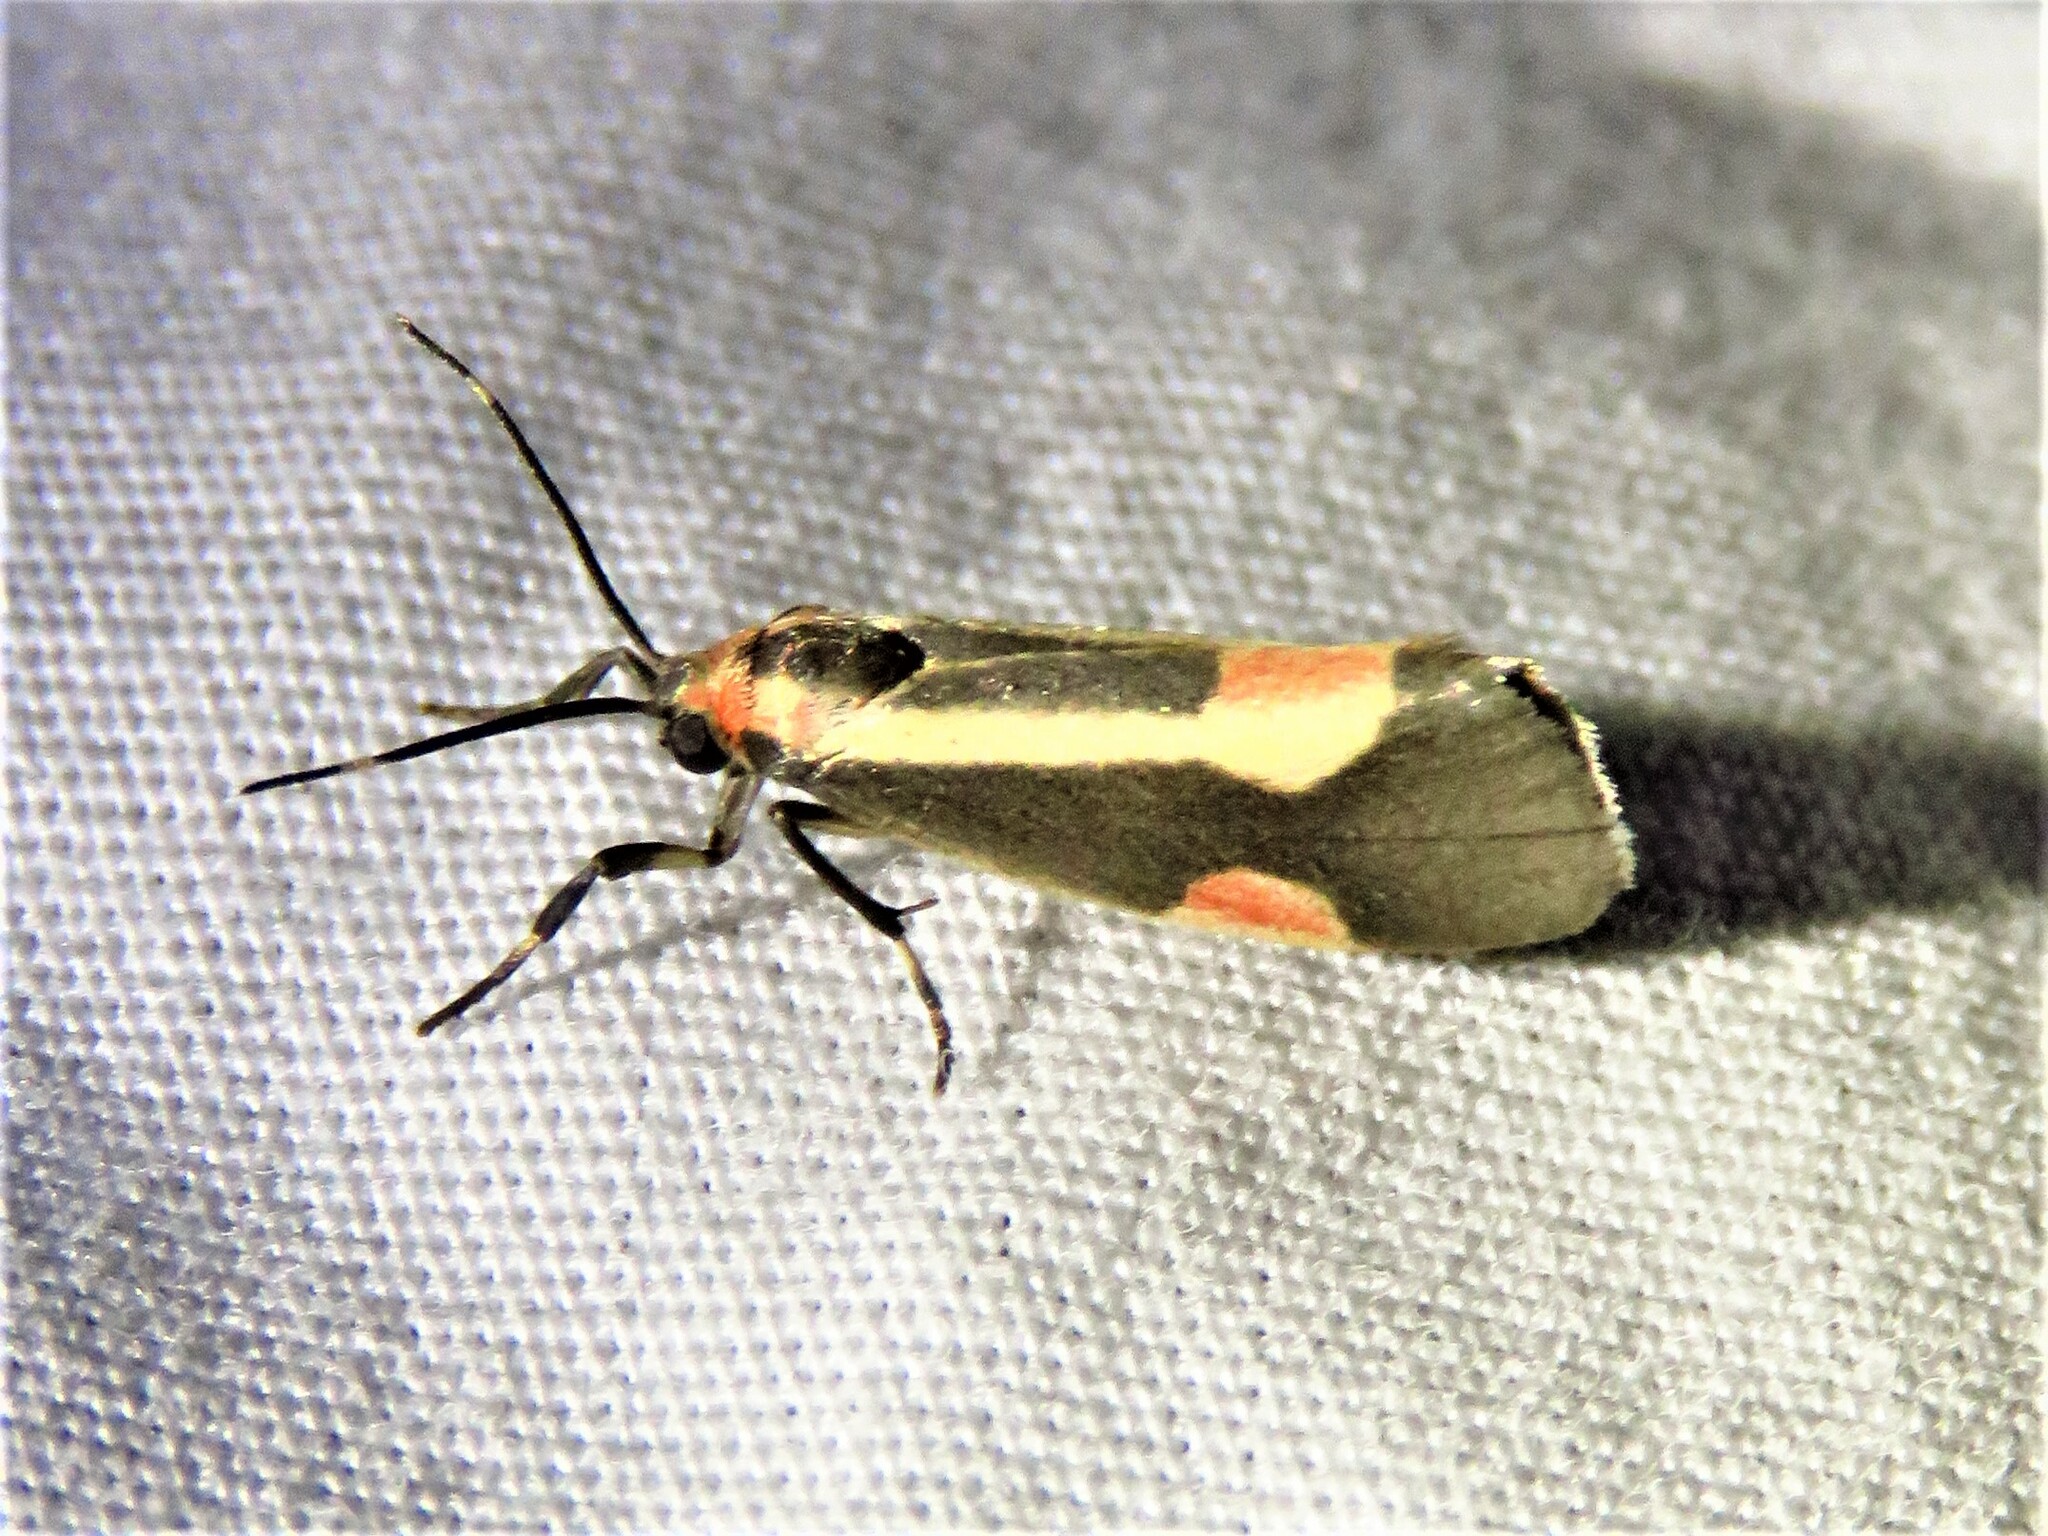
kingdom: Animalia
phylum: Arthropoda
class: Insecta
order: Lepidoptera
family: Erebidae
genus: Cisthene
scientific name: Cisthene packardii
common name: Packard's lichen moth
